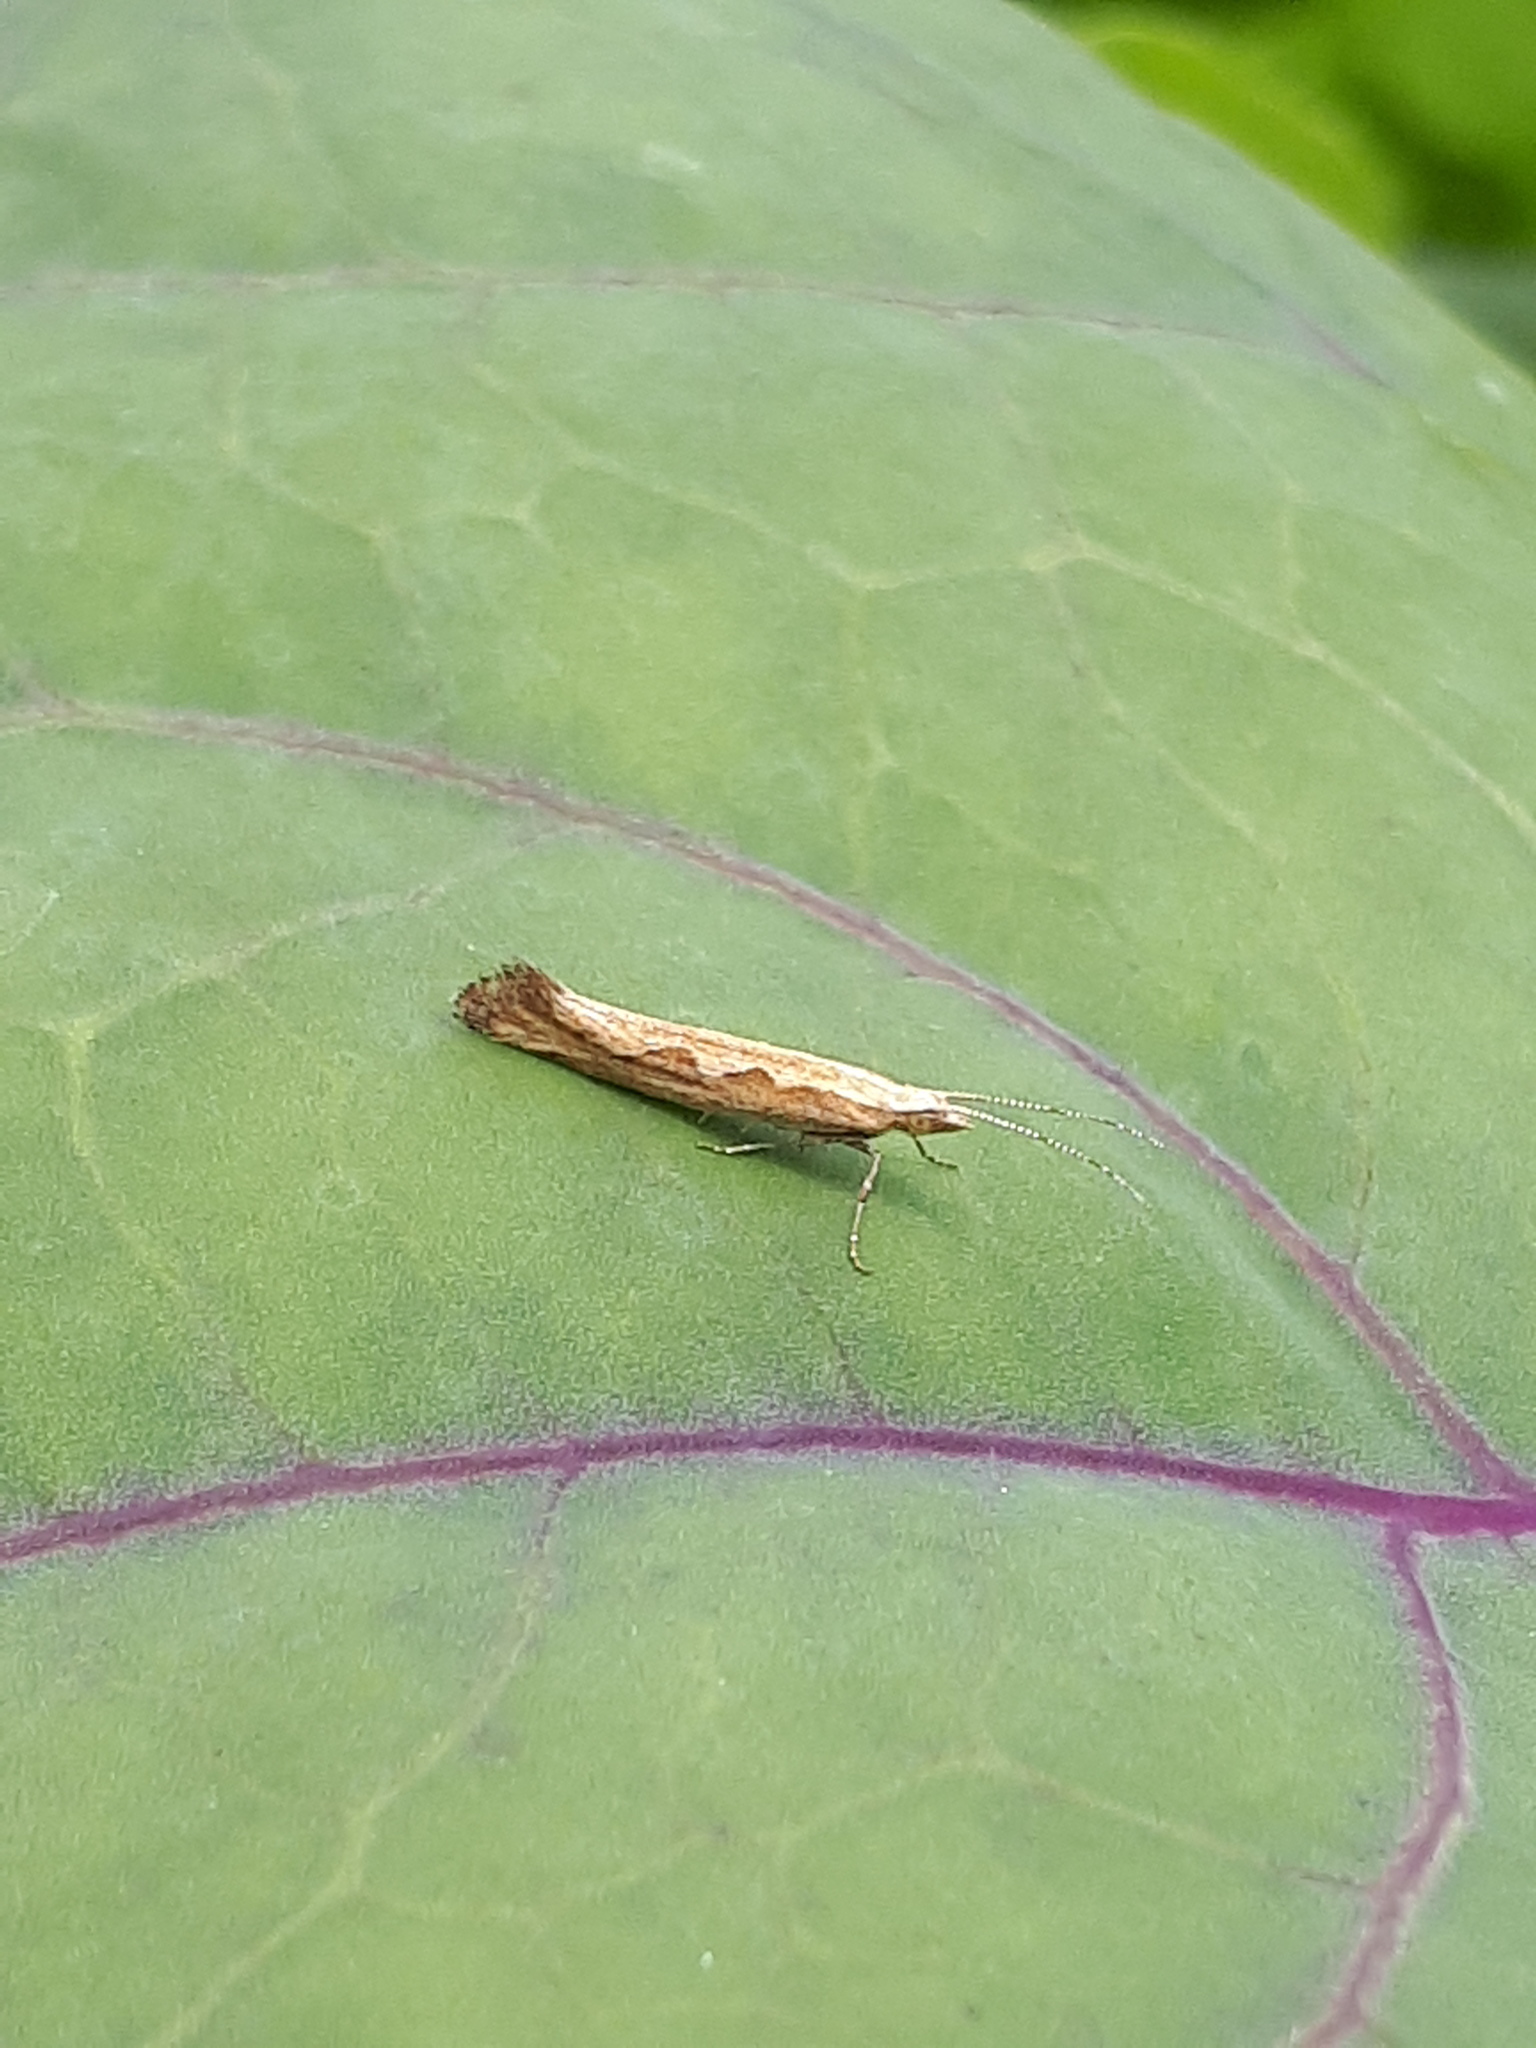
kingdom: Animalia
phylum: Arthropoda
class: Insecta
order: Lepidoptera
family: Plutellidae
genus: Plutella
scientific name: Plutella xylostella
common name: Diamond-back moth
